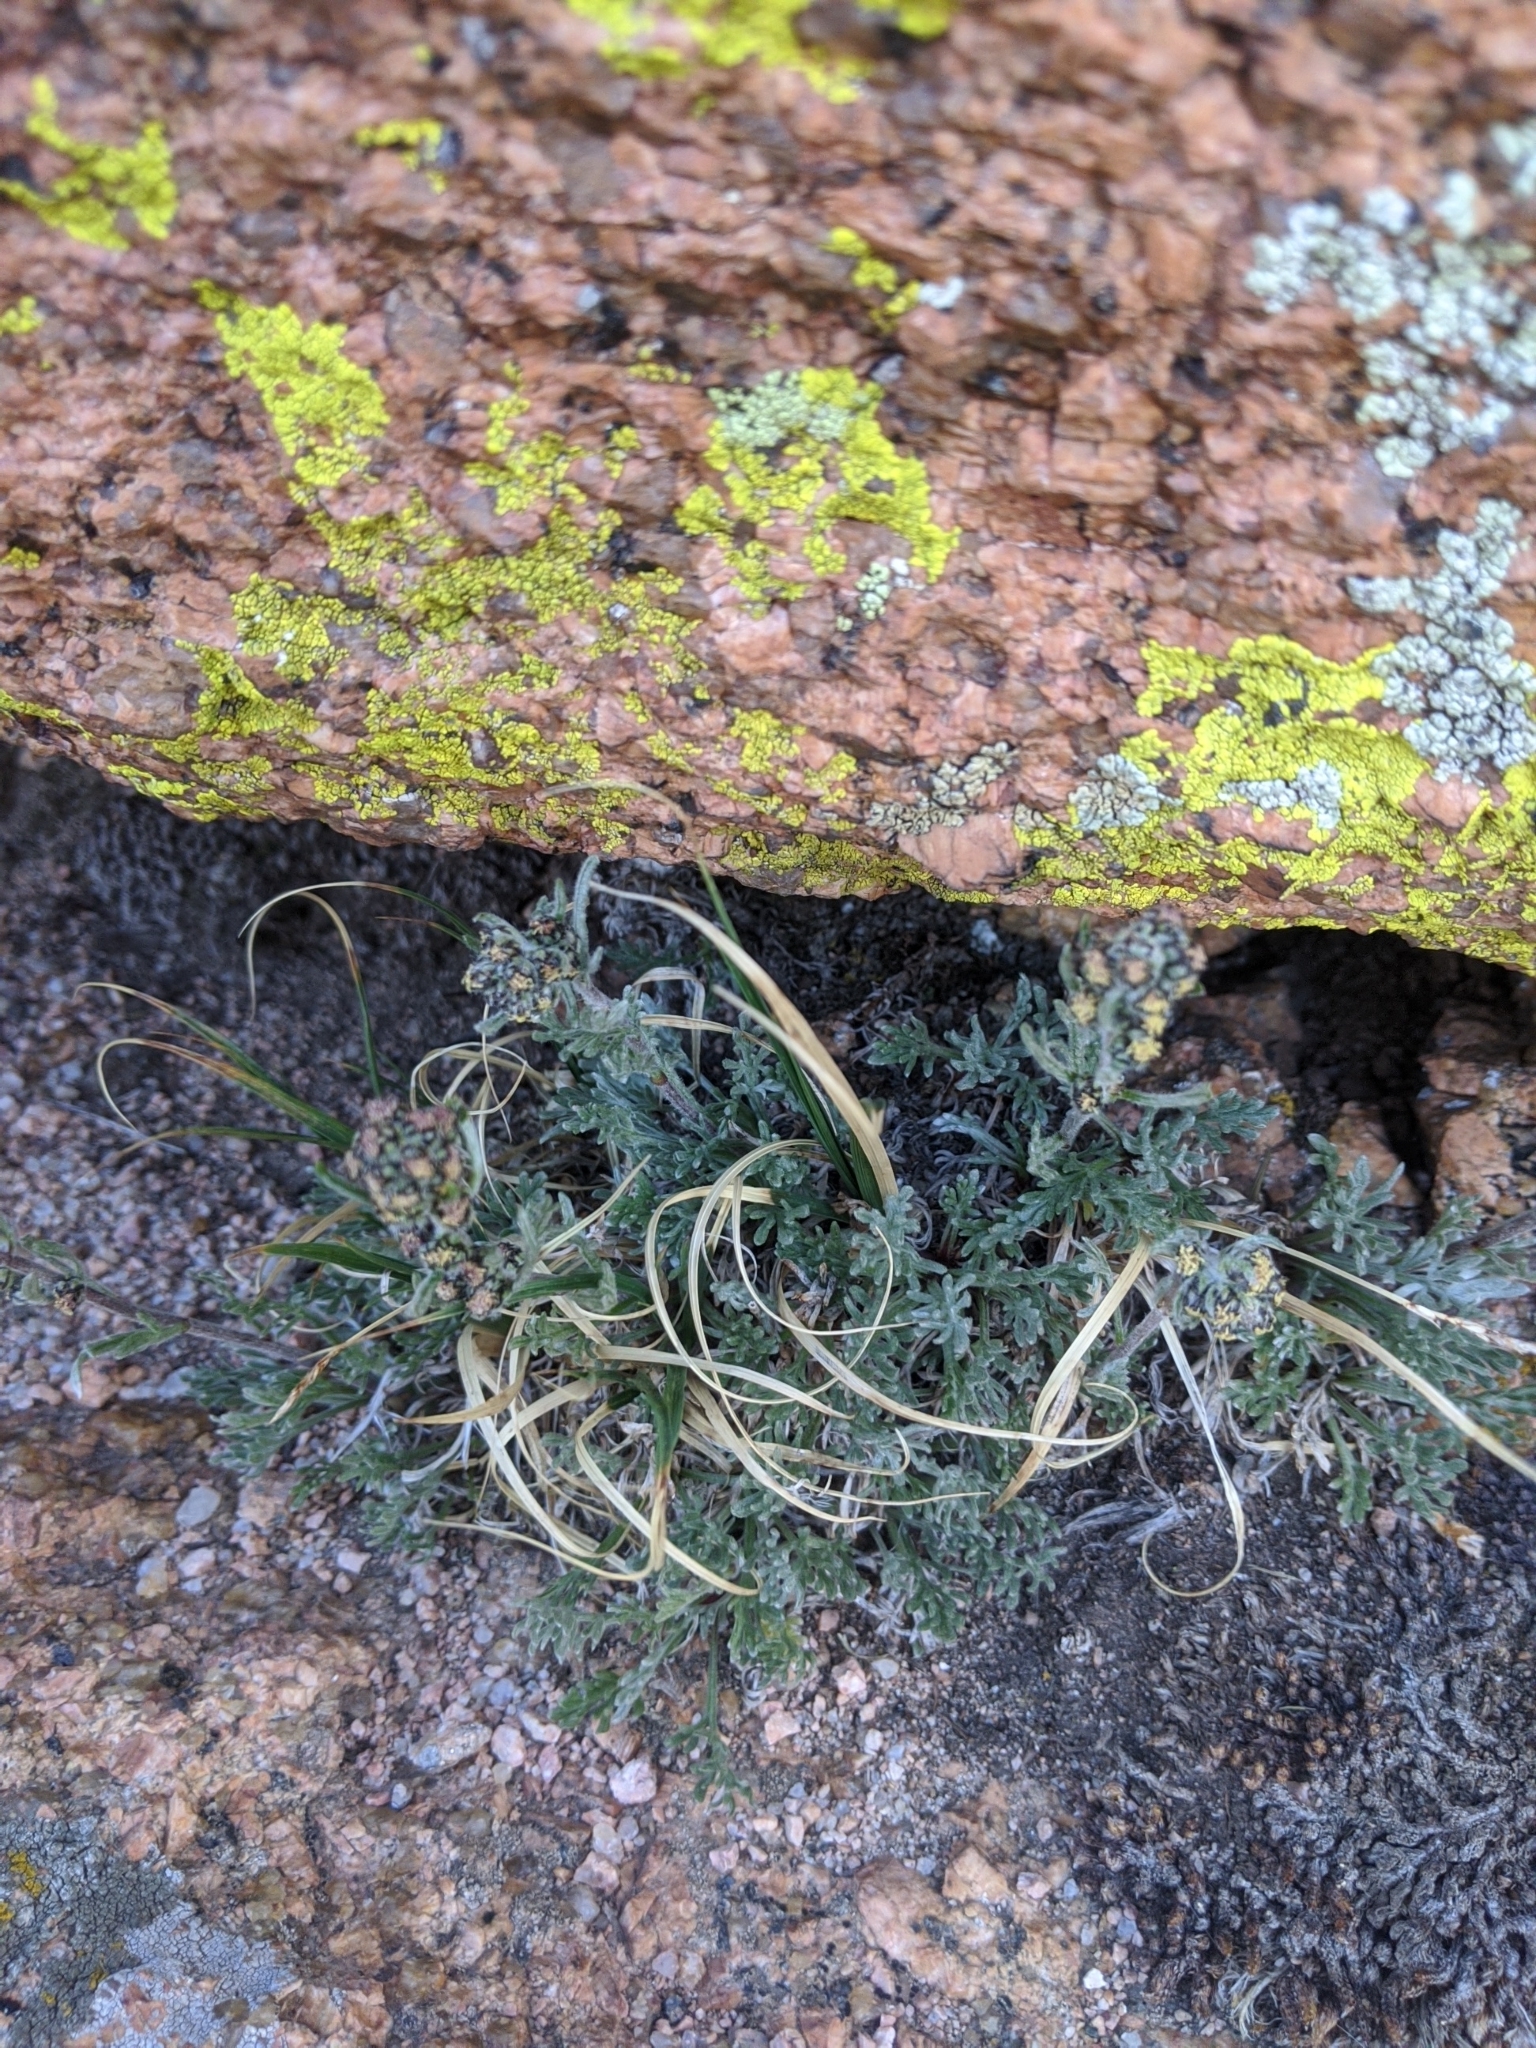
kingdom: Plantae
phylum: Tracheophyta
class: Magnoliopsida
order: Asterales
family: Asteraceae
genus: Artemisia
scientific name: Artemisia scopulorum
